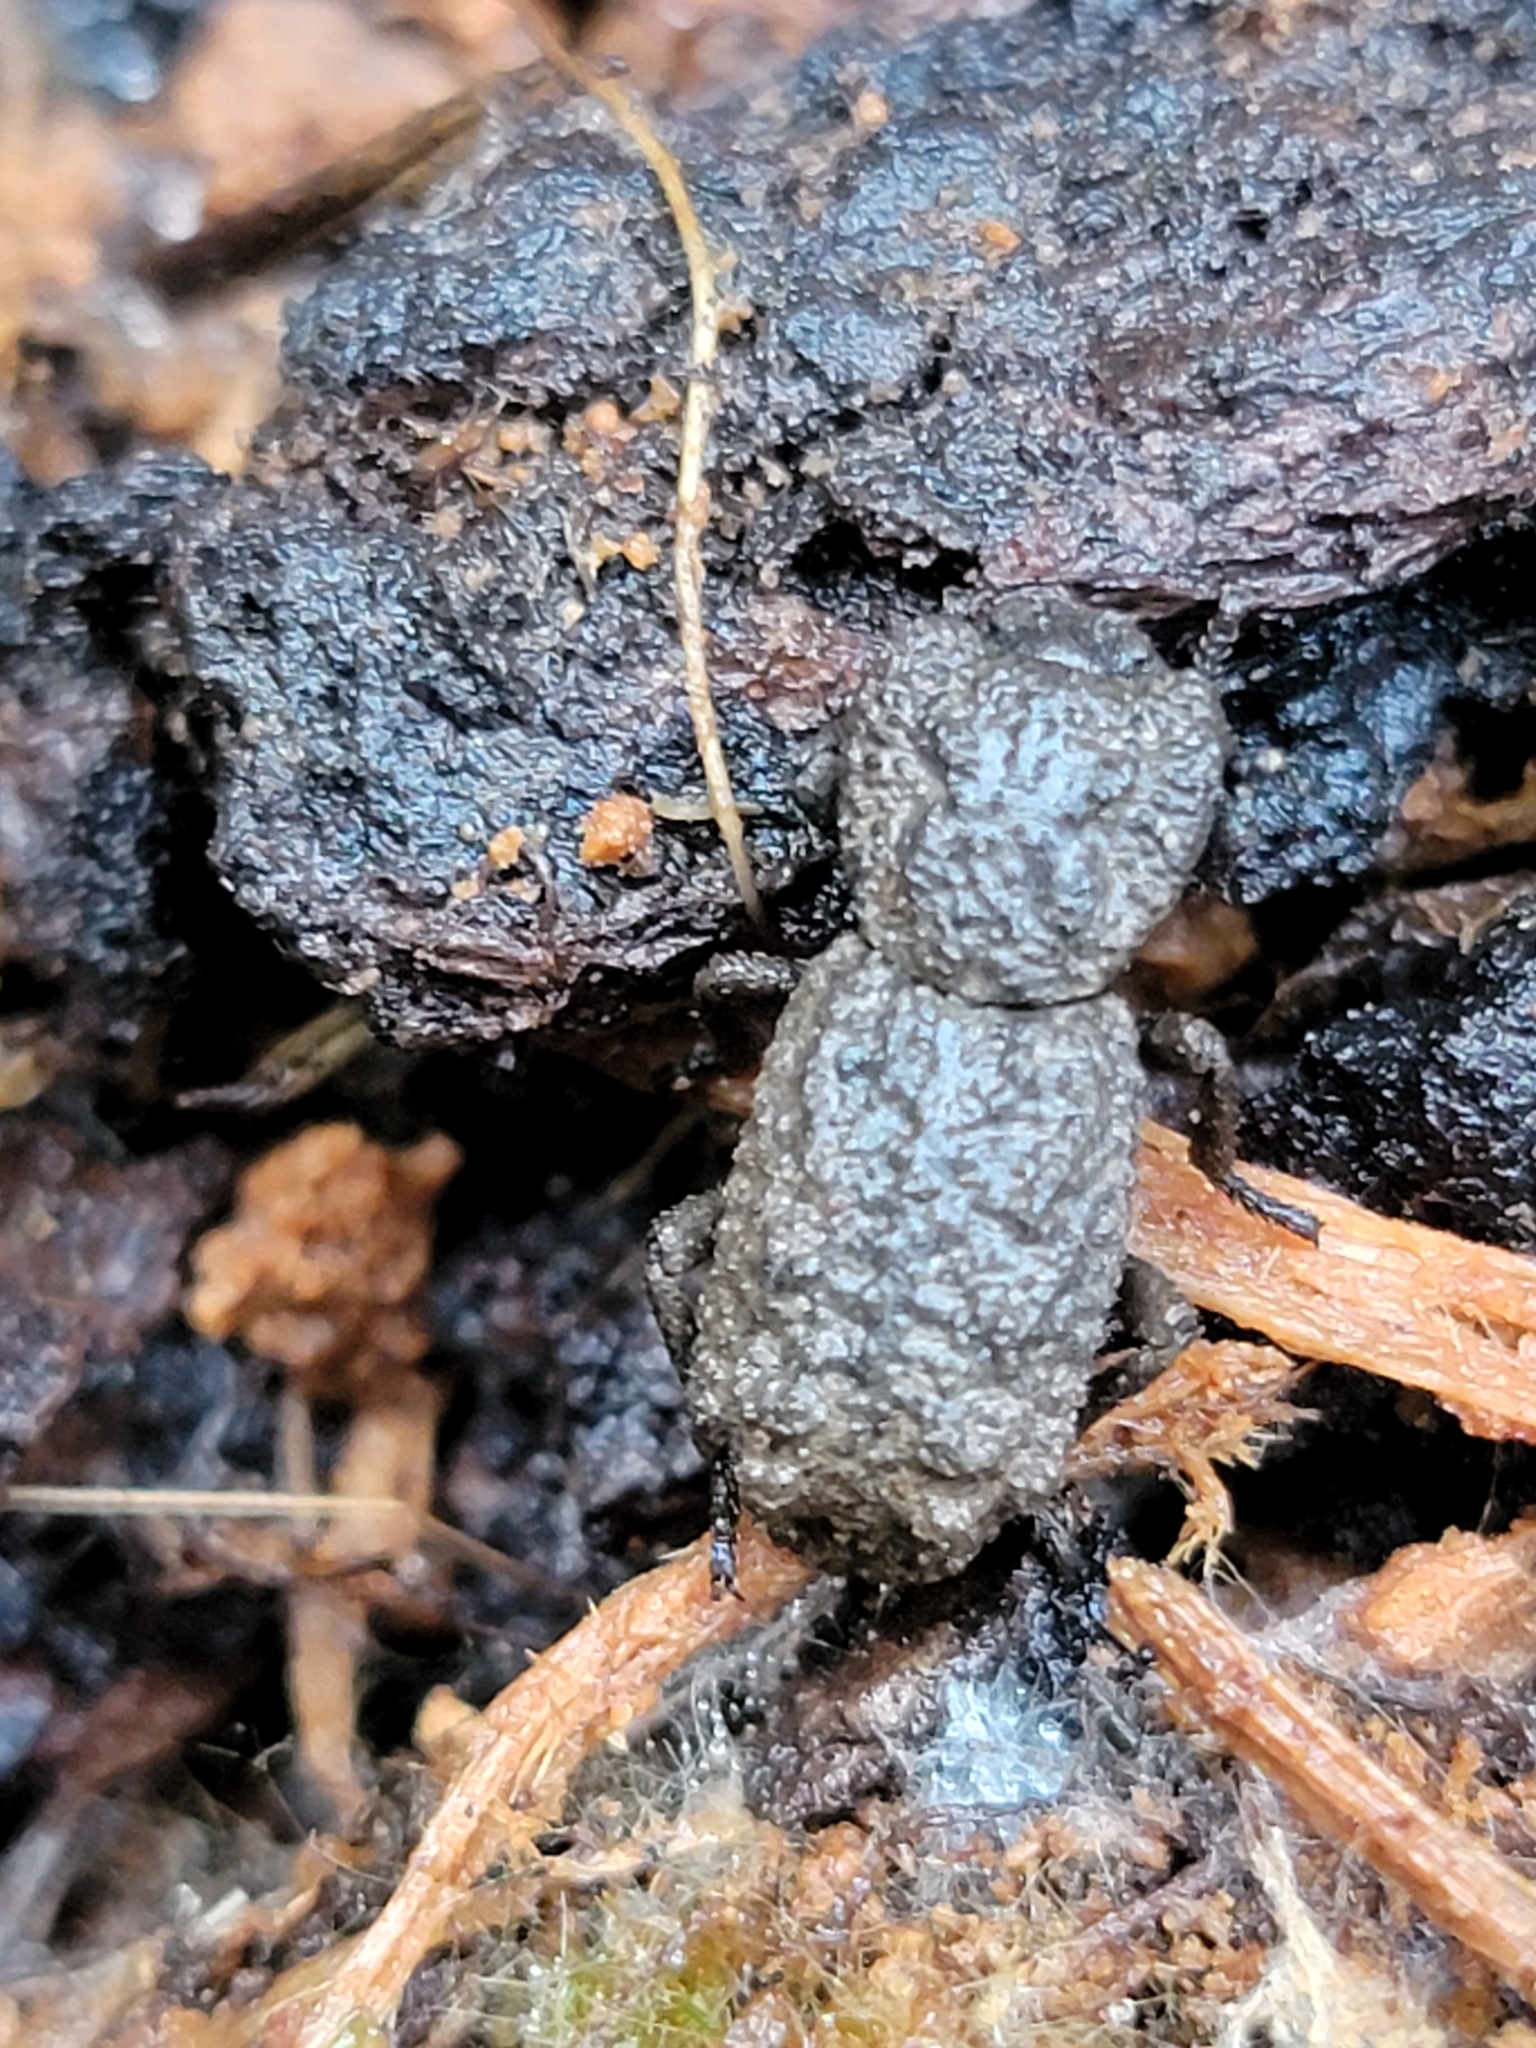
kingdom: Animalia
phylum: Arthropoda
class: Insecta
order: Coleoptera
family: Zopheridae
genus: Phloeodes
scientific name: Phloeodes plicatus
